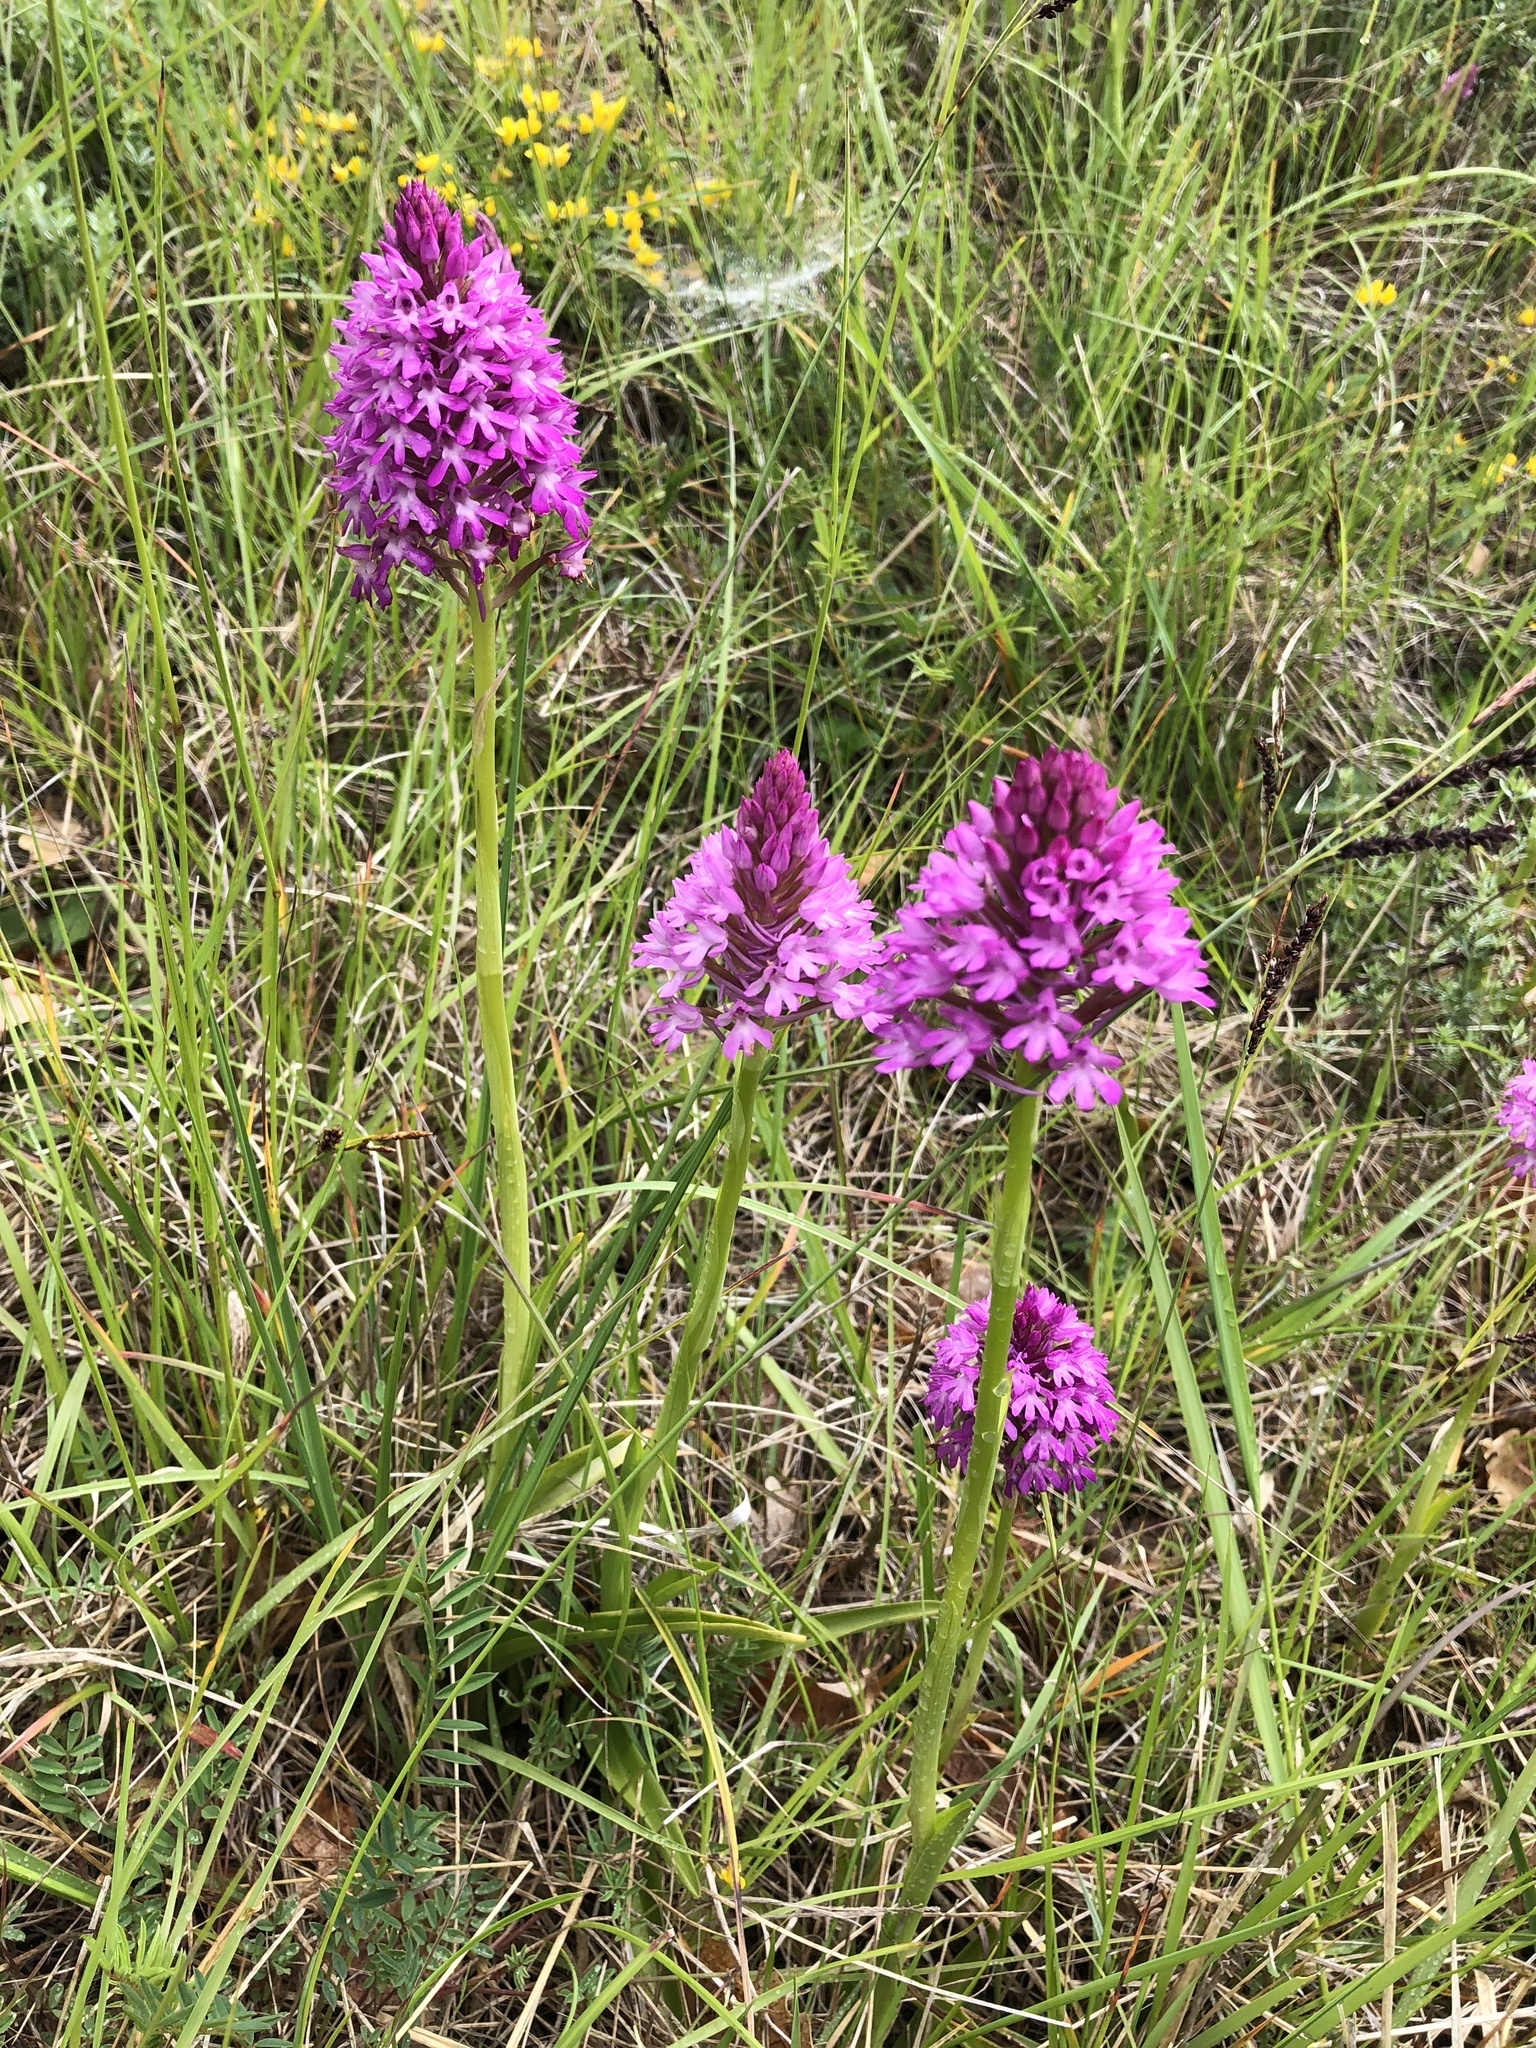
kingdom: Plantae
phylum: Tracheophyta
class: Liliopsida
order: Asparagales
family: Orchidaceae
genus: Anacamptis
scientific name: Anacamptis pyramidalis
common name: Pyramidal orchid
